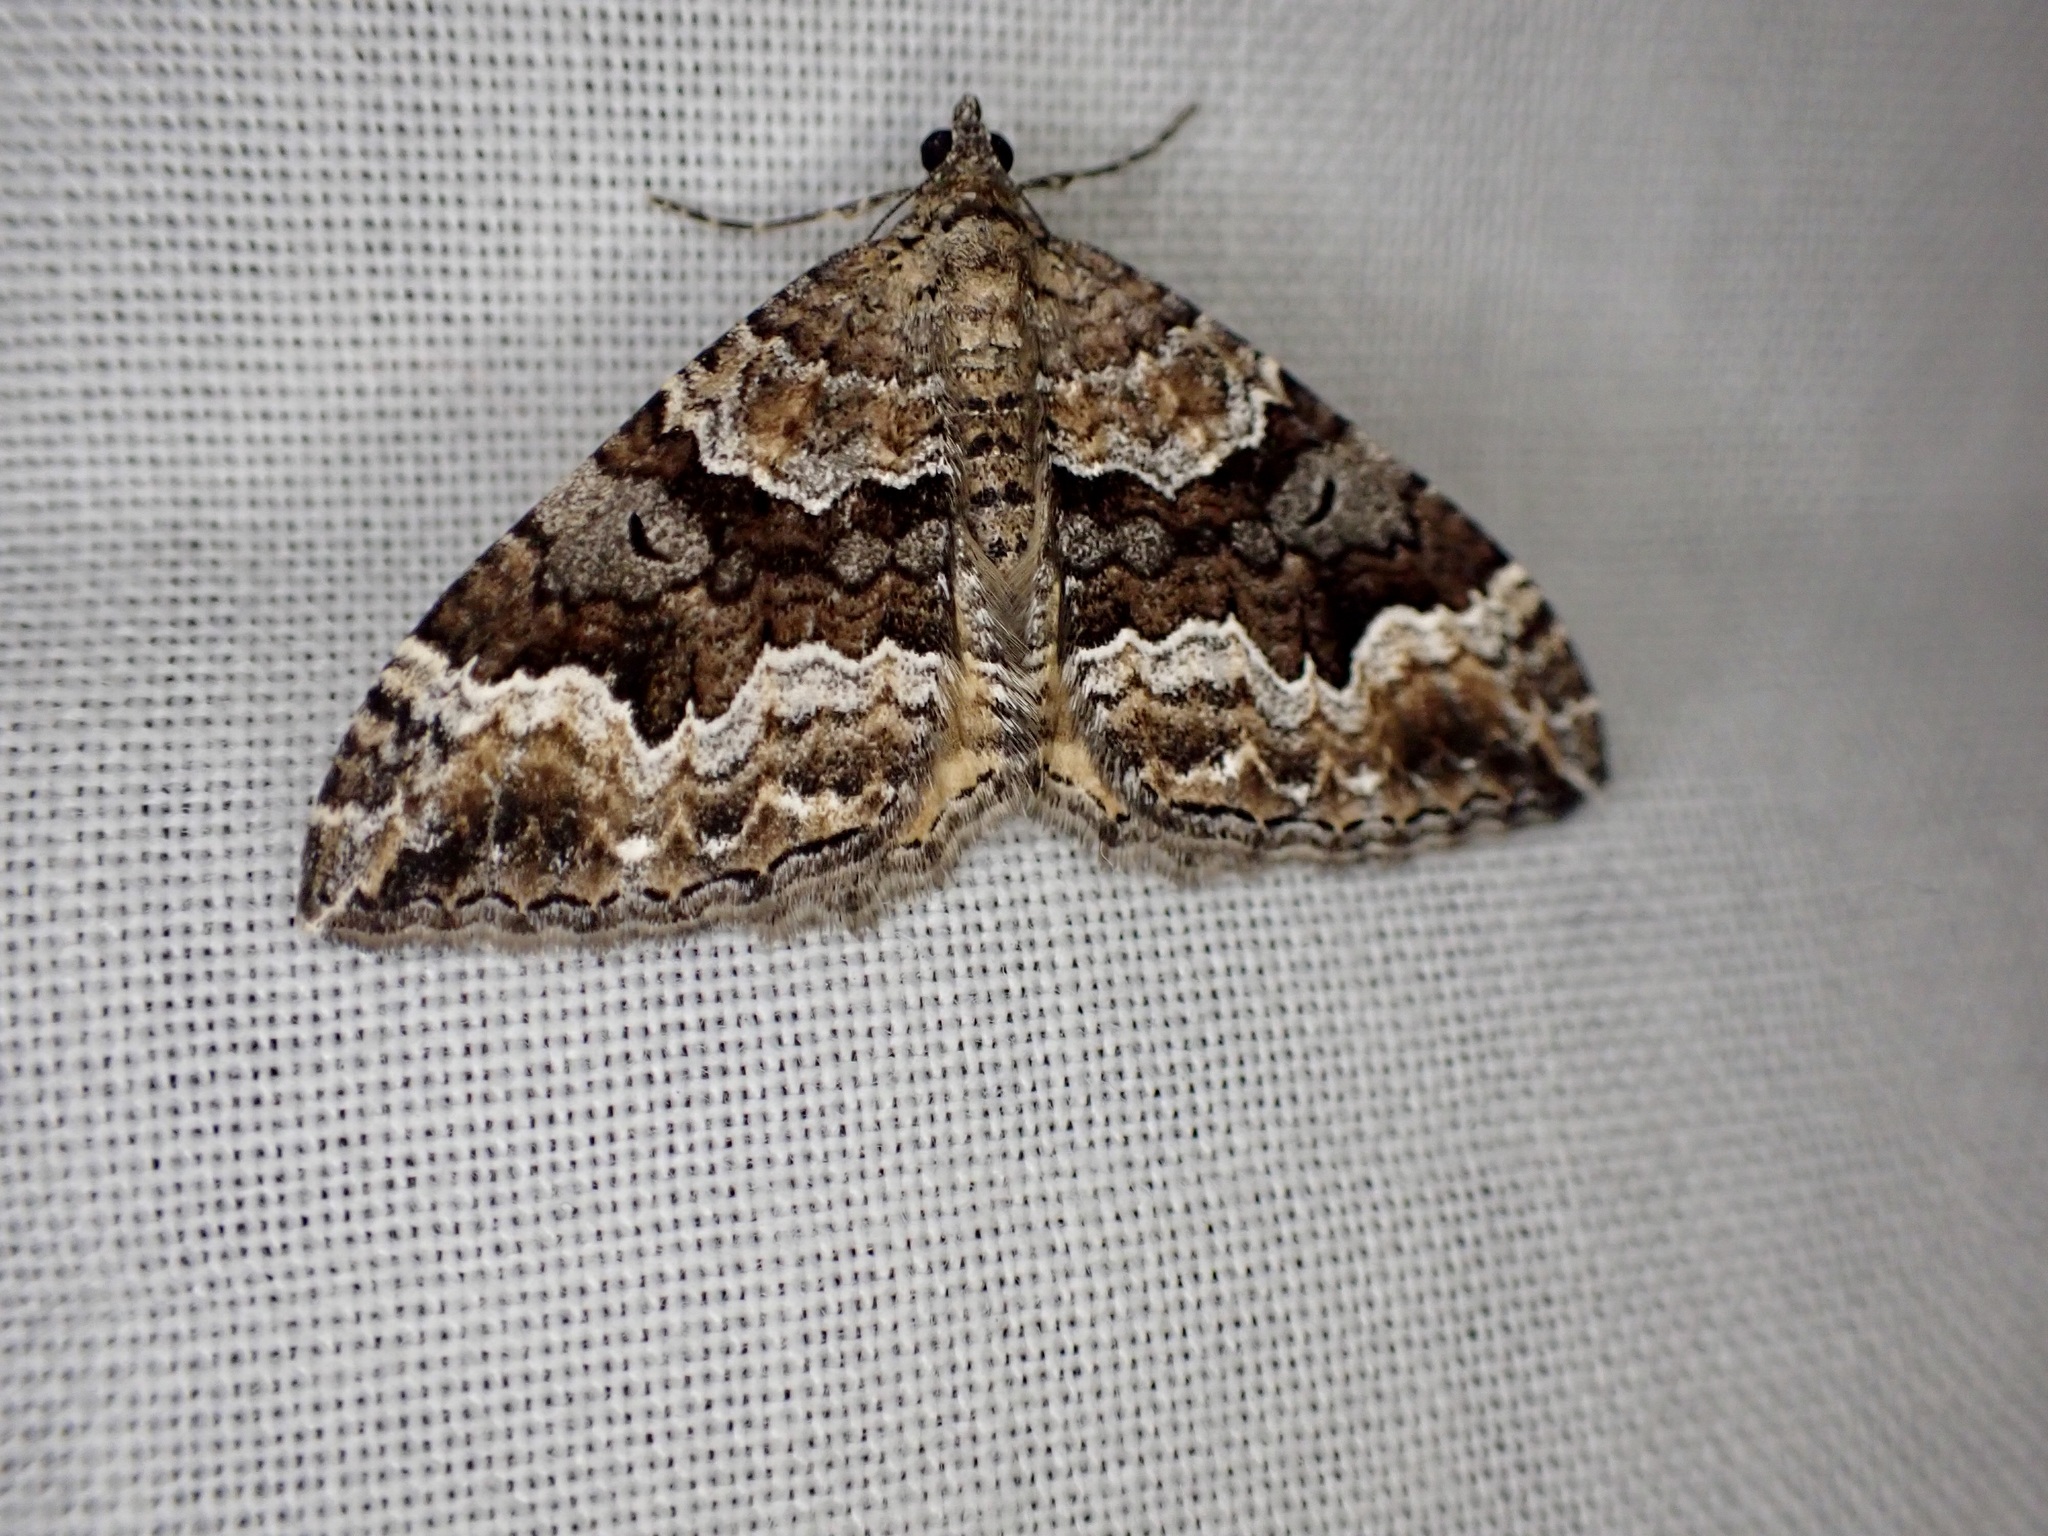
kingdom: Animalia
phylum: Arthropoda
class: Insecta
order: Lepidoptera
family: Geometridae
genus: Hydriomena
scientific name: Hydriomena deltoidata
